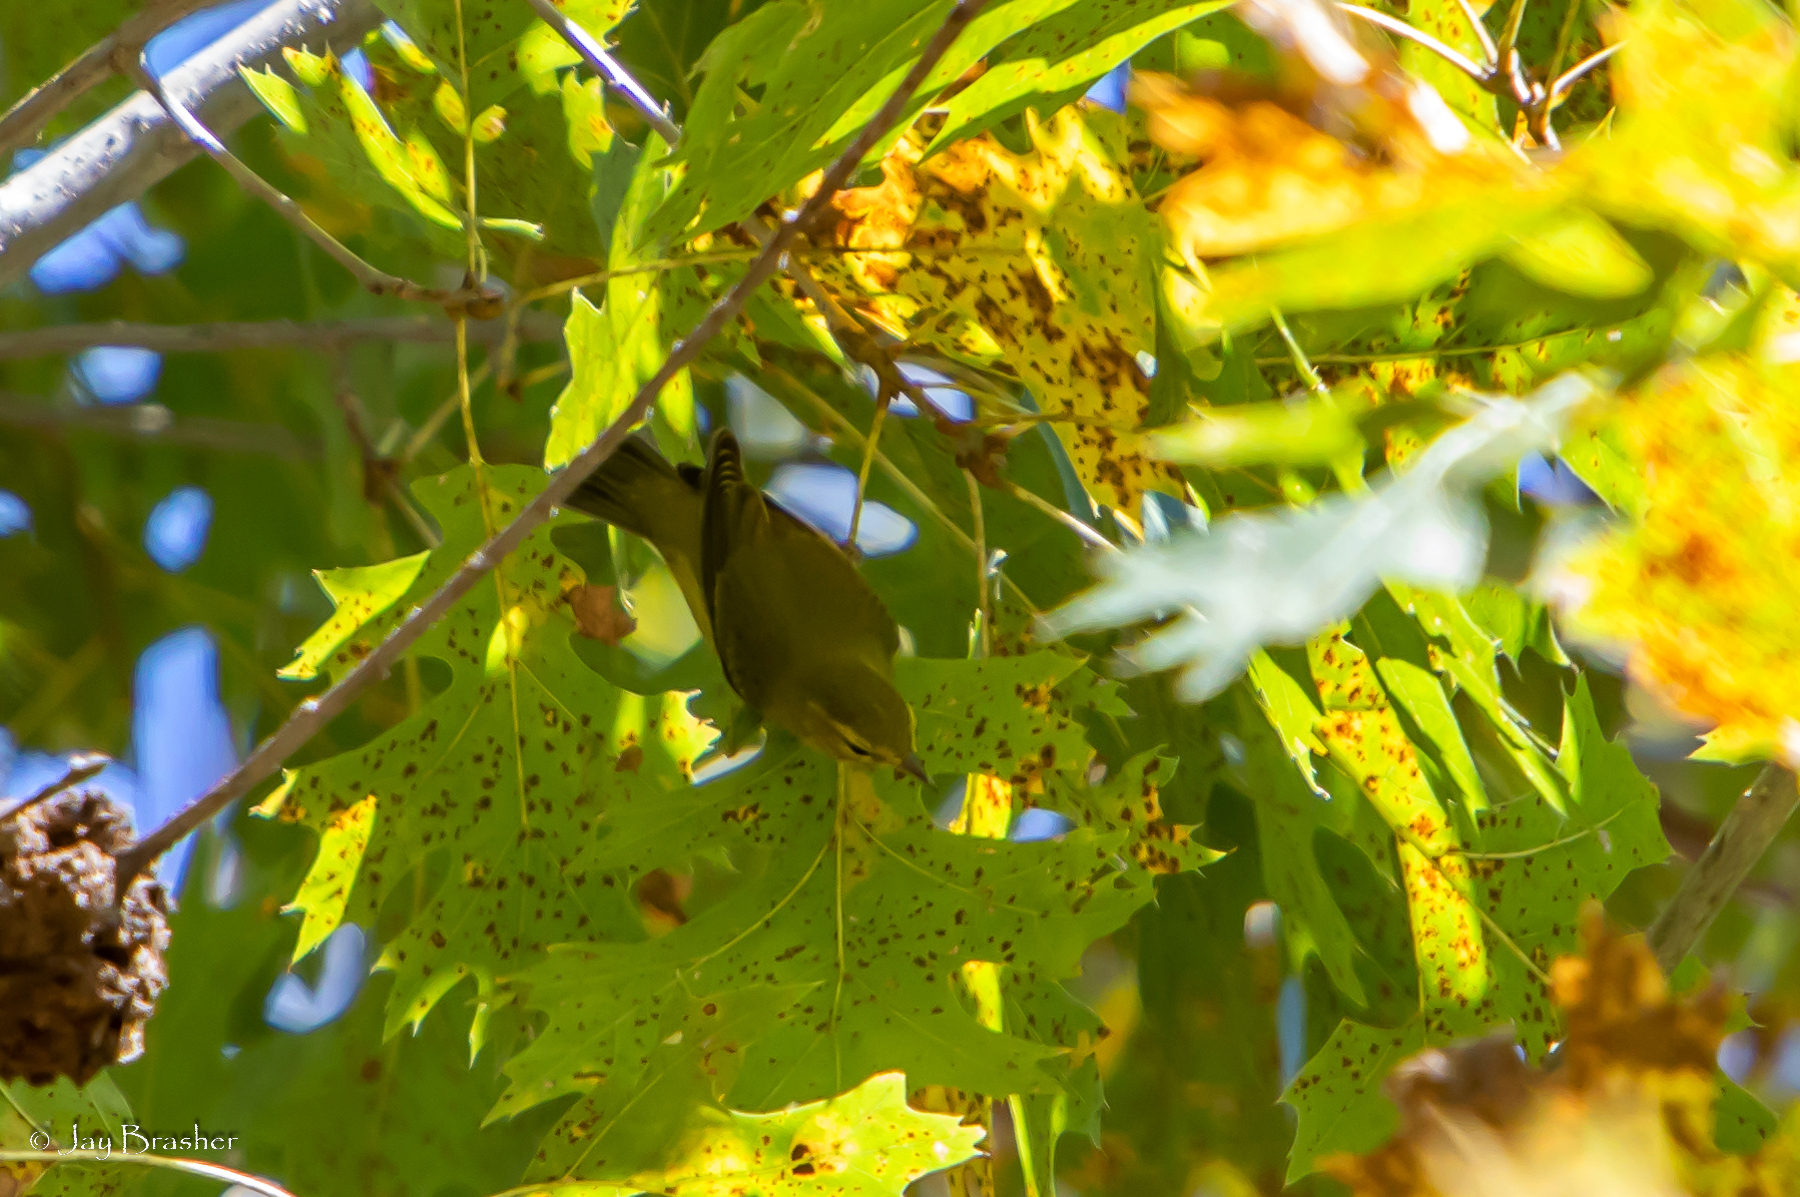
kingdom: Animalia
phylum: Chordata
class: Aves
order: Passeriformes
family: Parulidae
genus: Leiothlypis
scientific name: Leiothlypis peregrina
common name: Tennessee warbler
